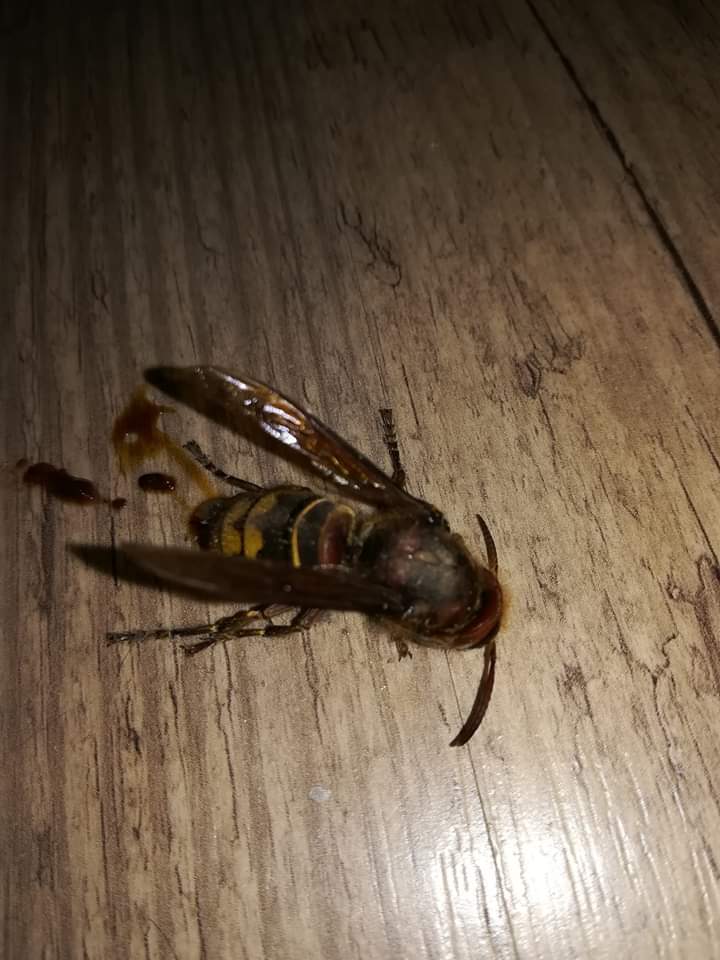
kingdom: Animalia
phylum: Arthropoda
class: Insecta
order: Hymenoptera
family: Vespidae
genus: Vespa
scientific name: Vespa crabro
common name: Hornet
